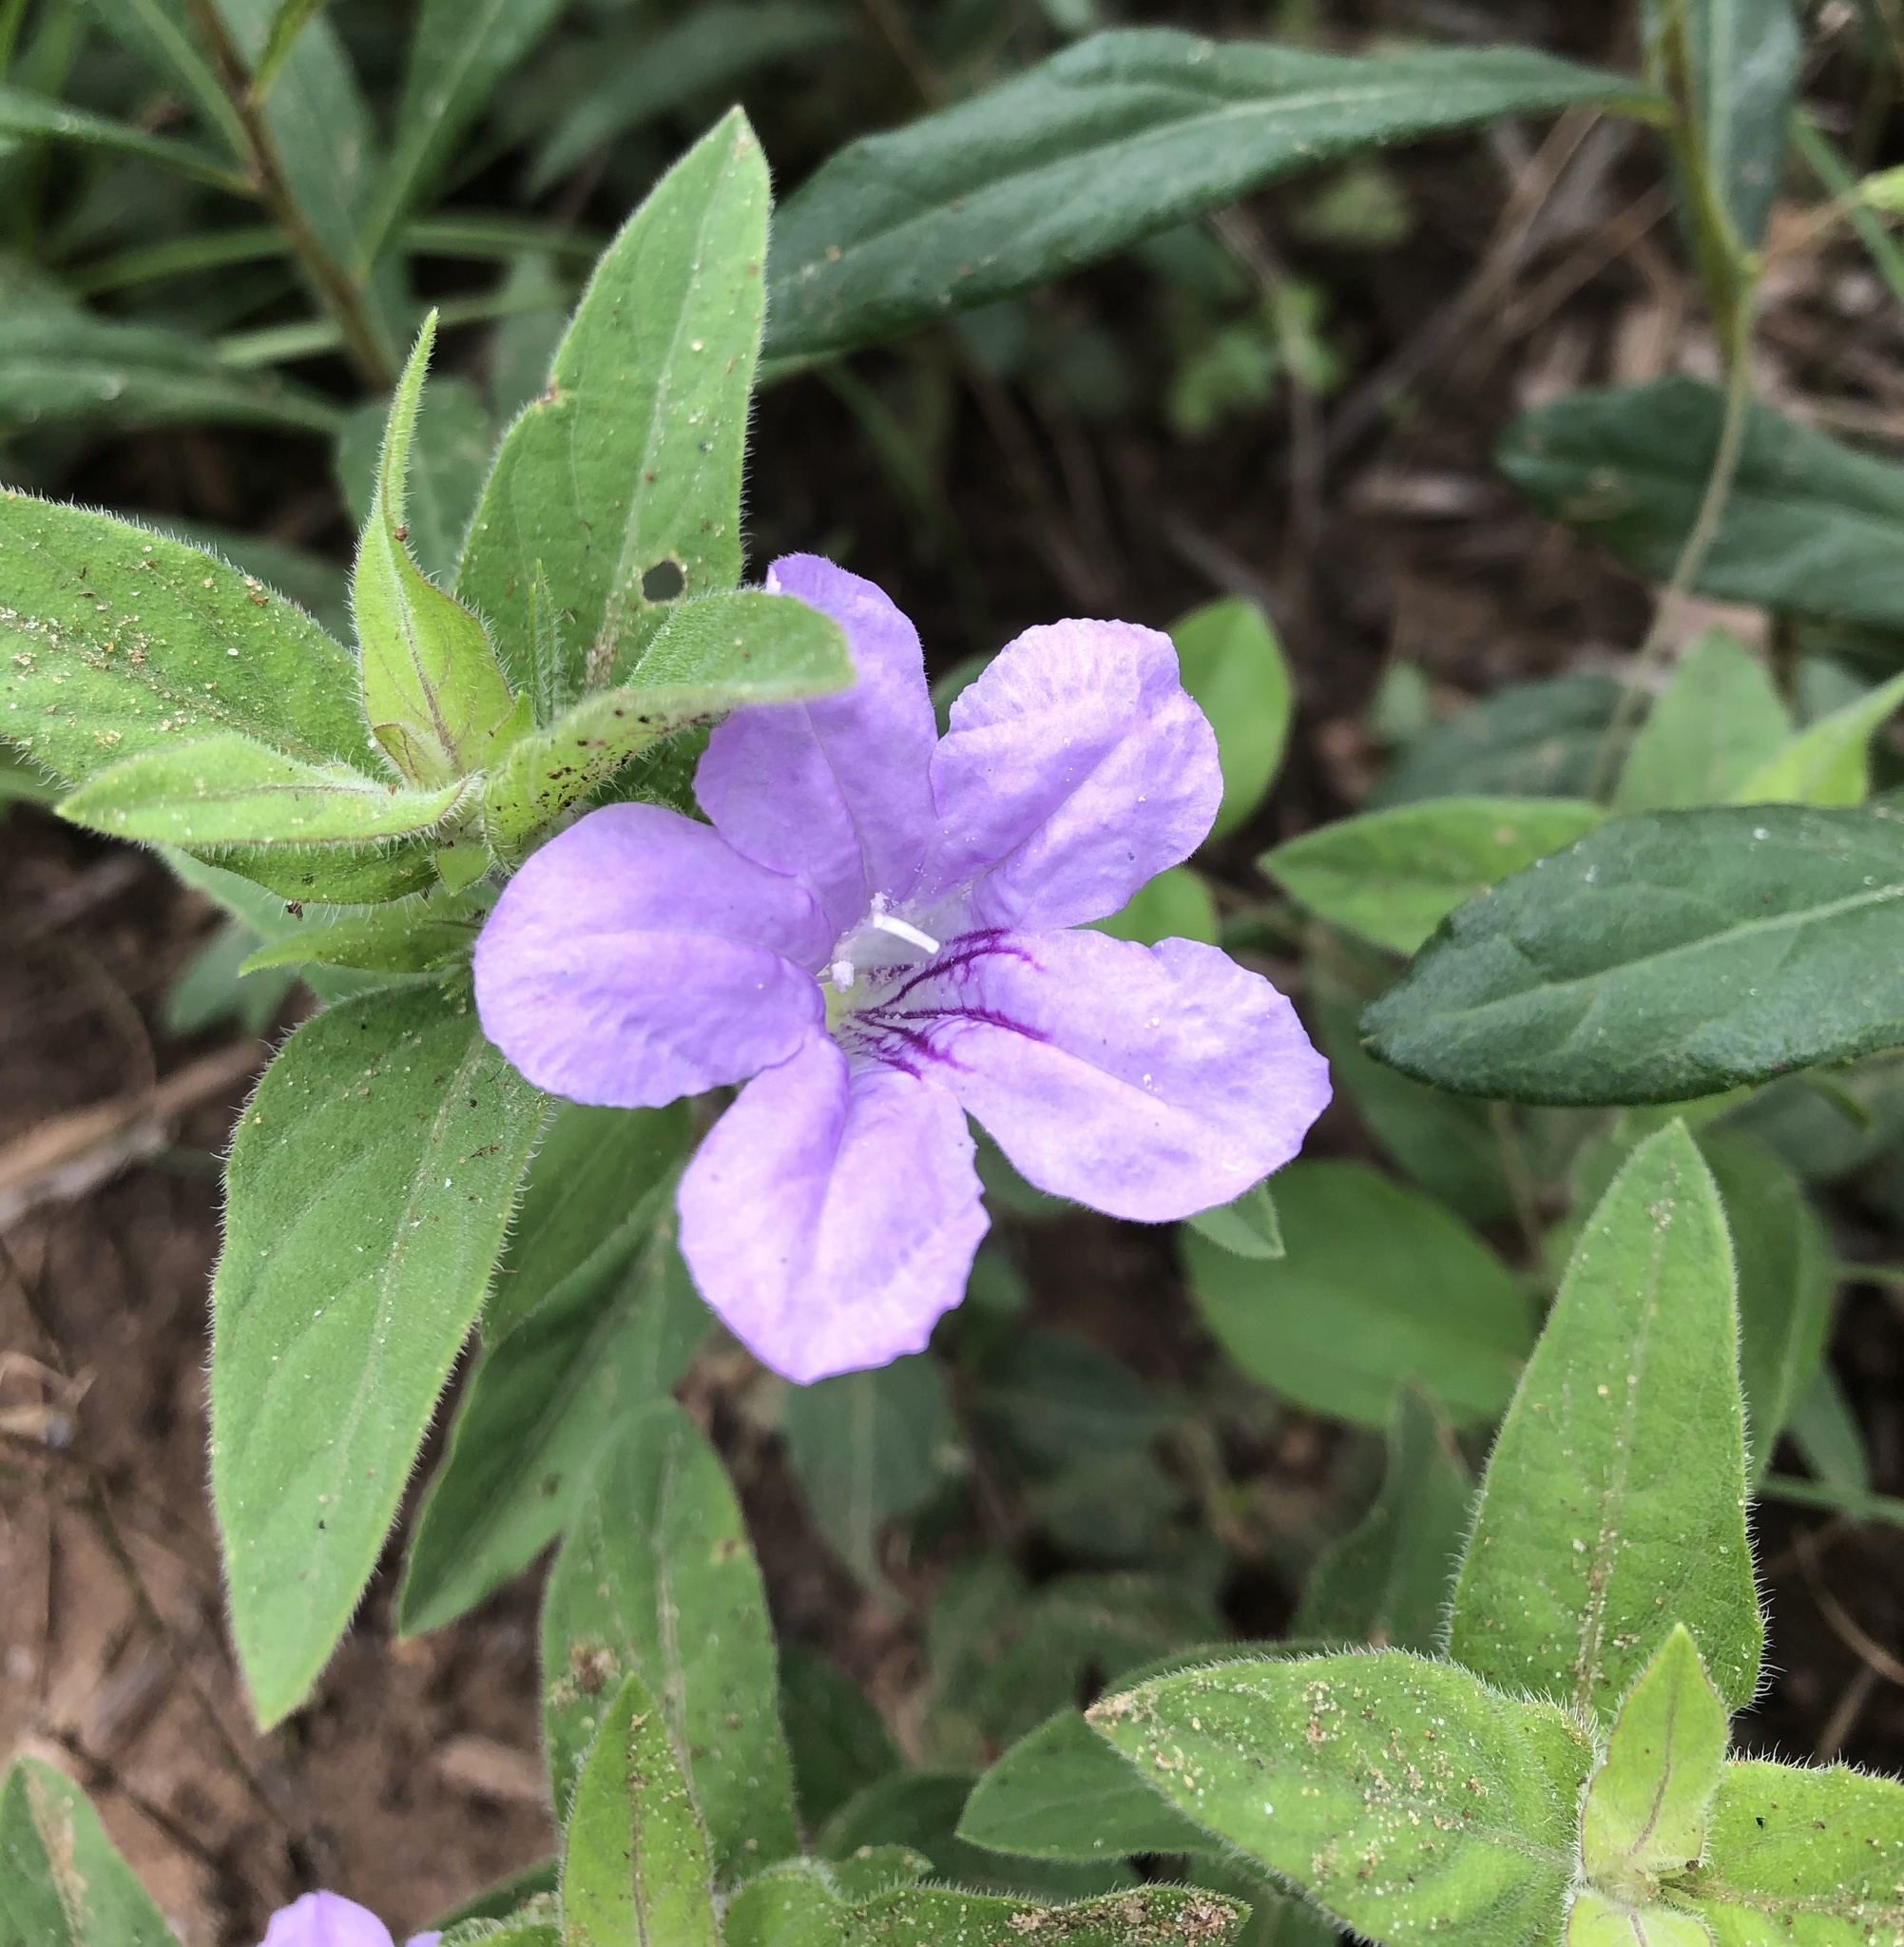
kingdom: Plantae
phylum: Tracheophyta
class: Magnoliopsida
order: Lamiales
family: Acanthaceae
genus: Ruellia
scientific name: Ruellia humilis
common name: Fringe-leaf ruellia
